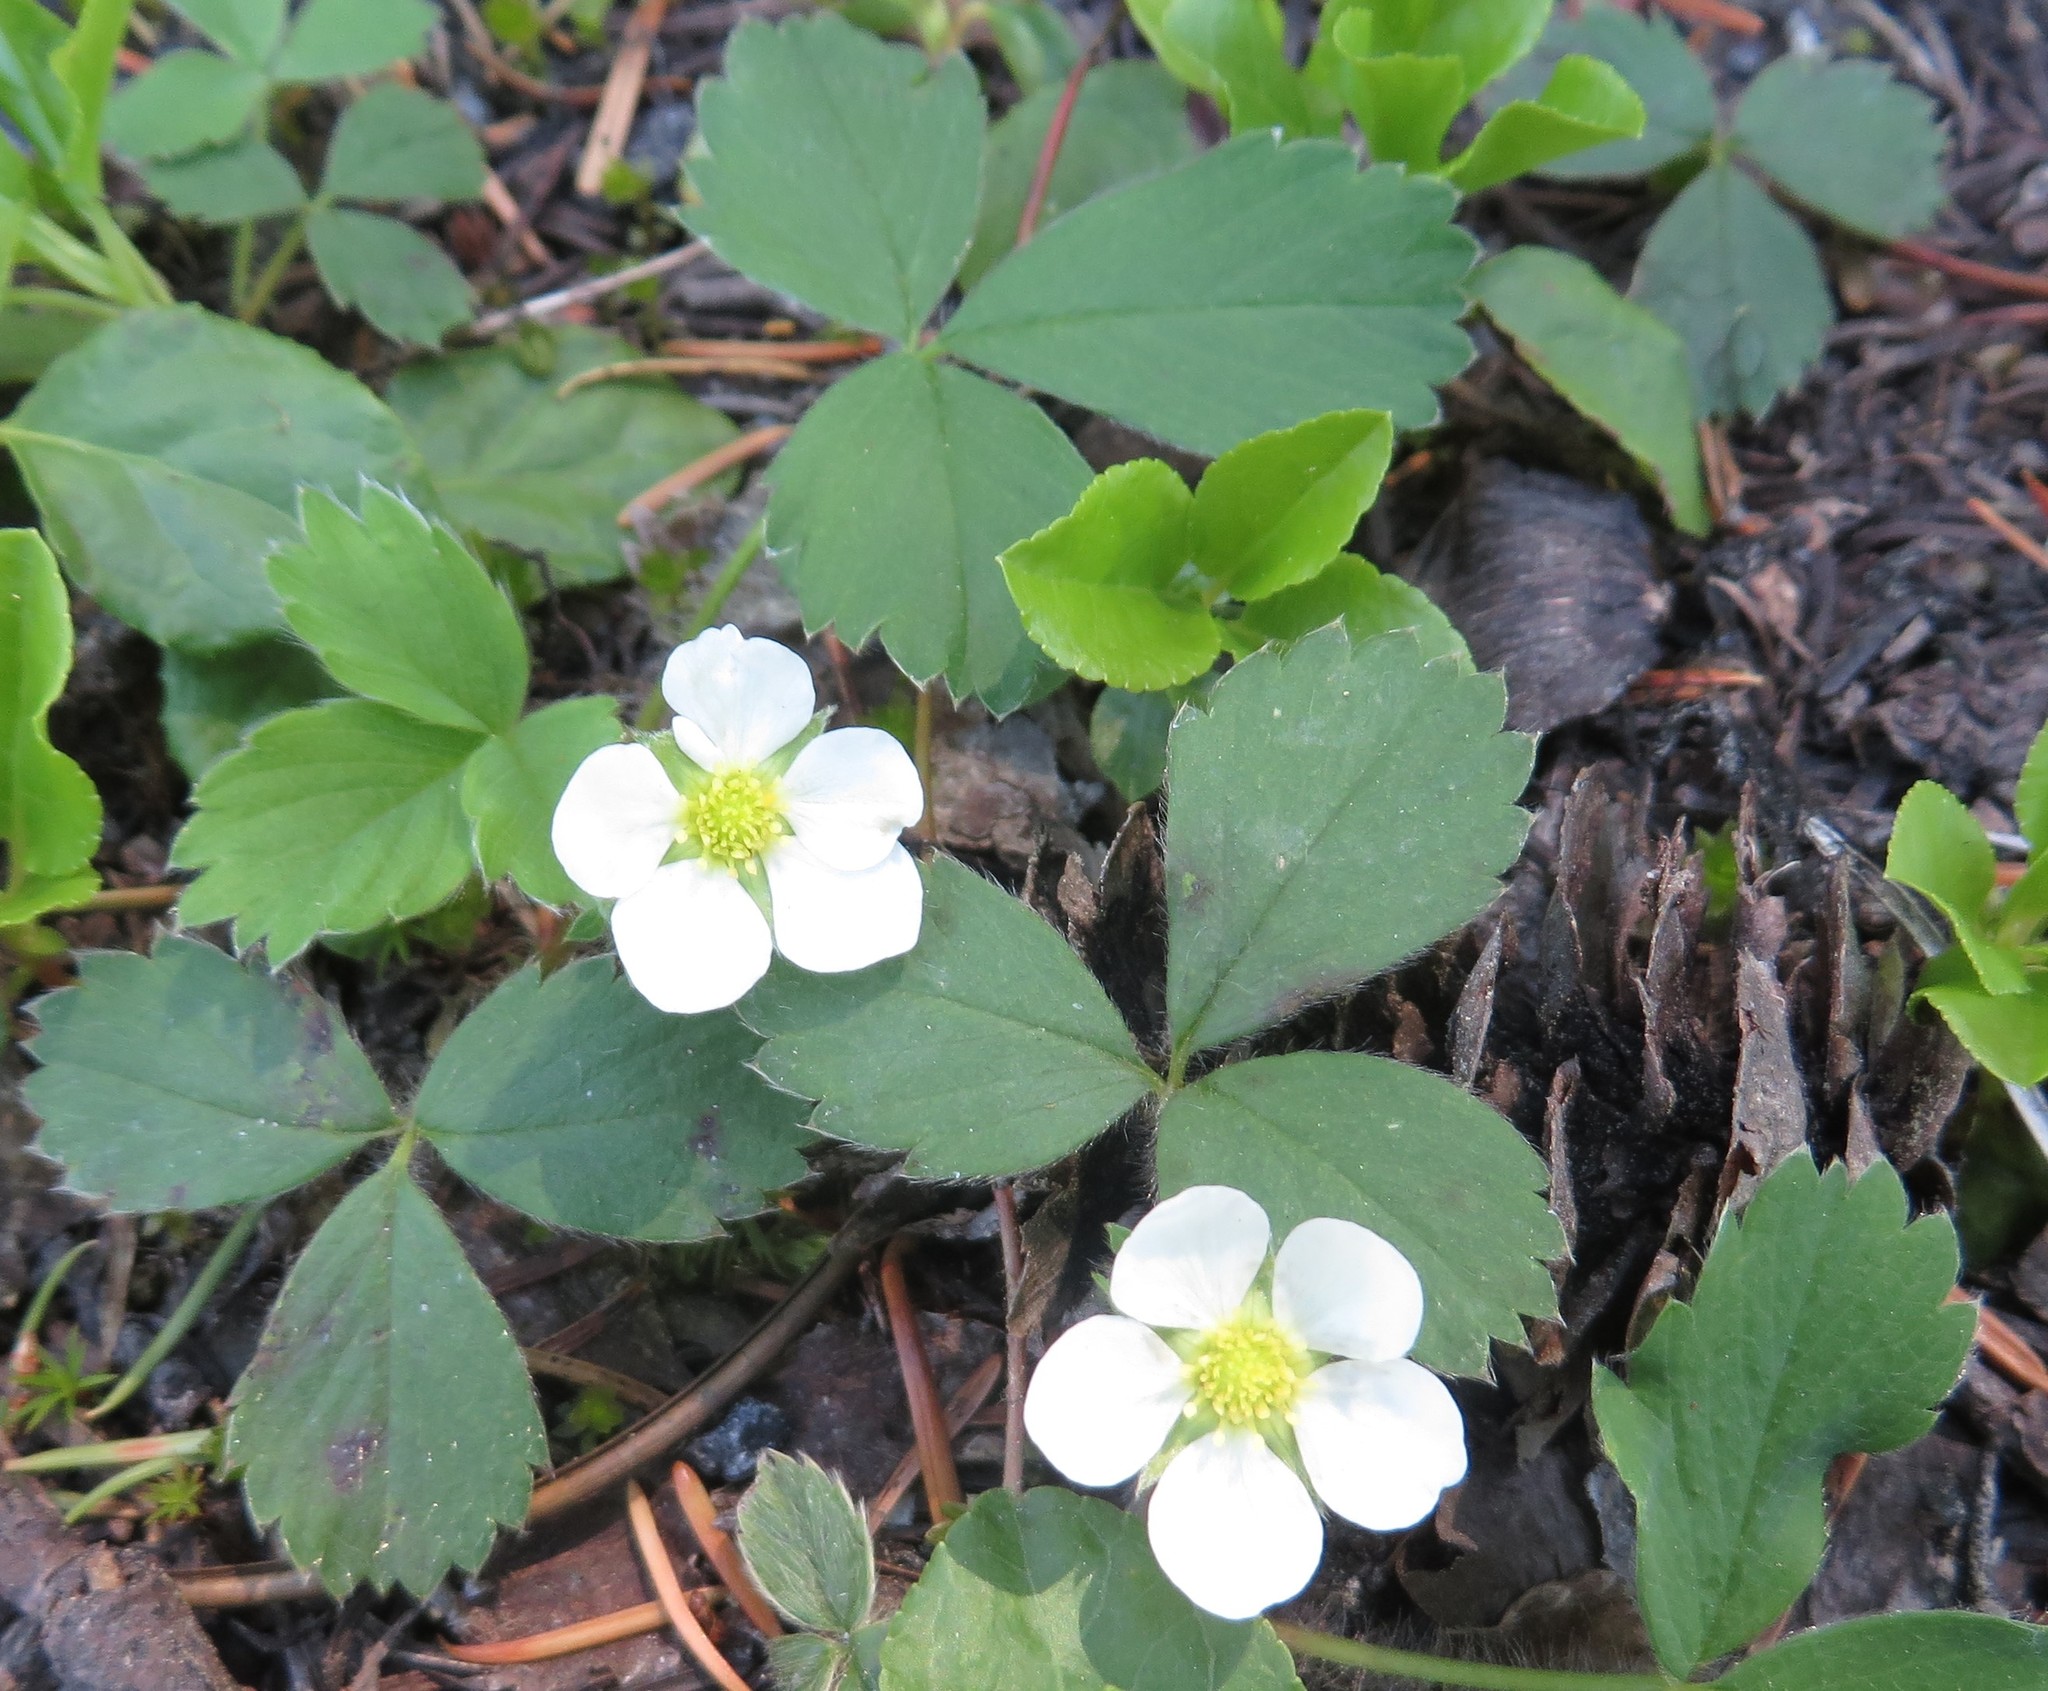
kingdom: Plantae
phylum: Tracheophyta
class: Magnoliopsida
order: Rosales
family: Rosaceae
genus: Fragaria
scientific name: Fragaria cascadensis
